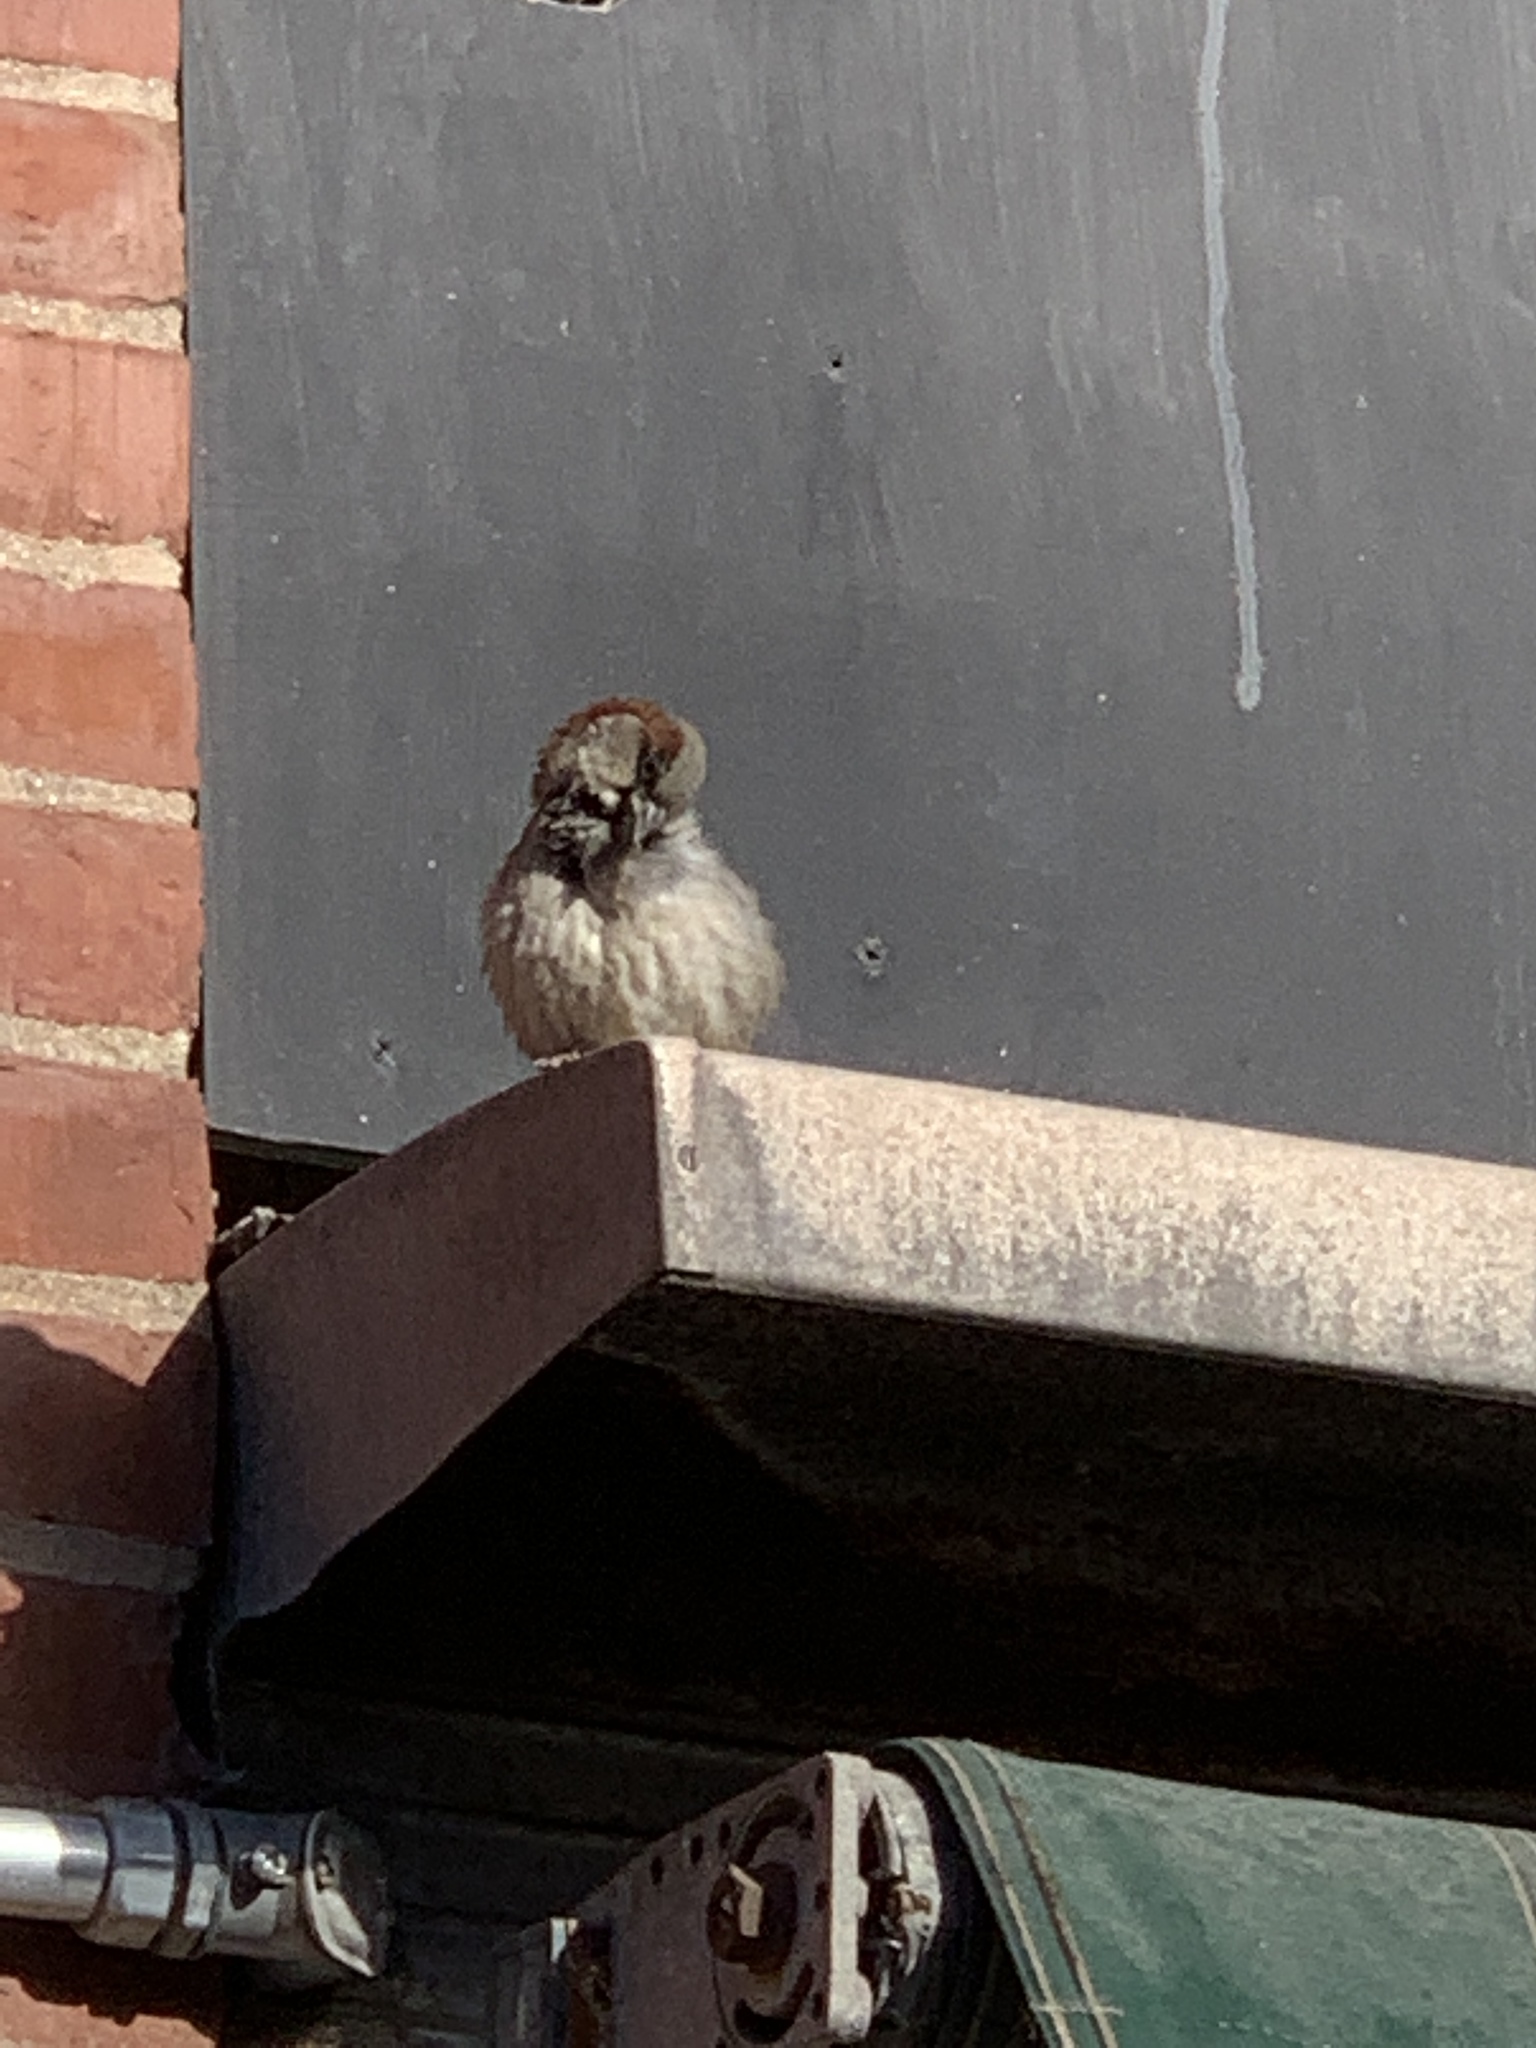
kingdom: Animalia
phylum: Chordata
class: Aves
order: Passeriformes
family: Passeridae
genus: Passer
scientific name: Passer domesticus
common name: House sparrow
